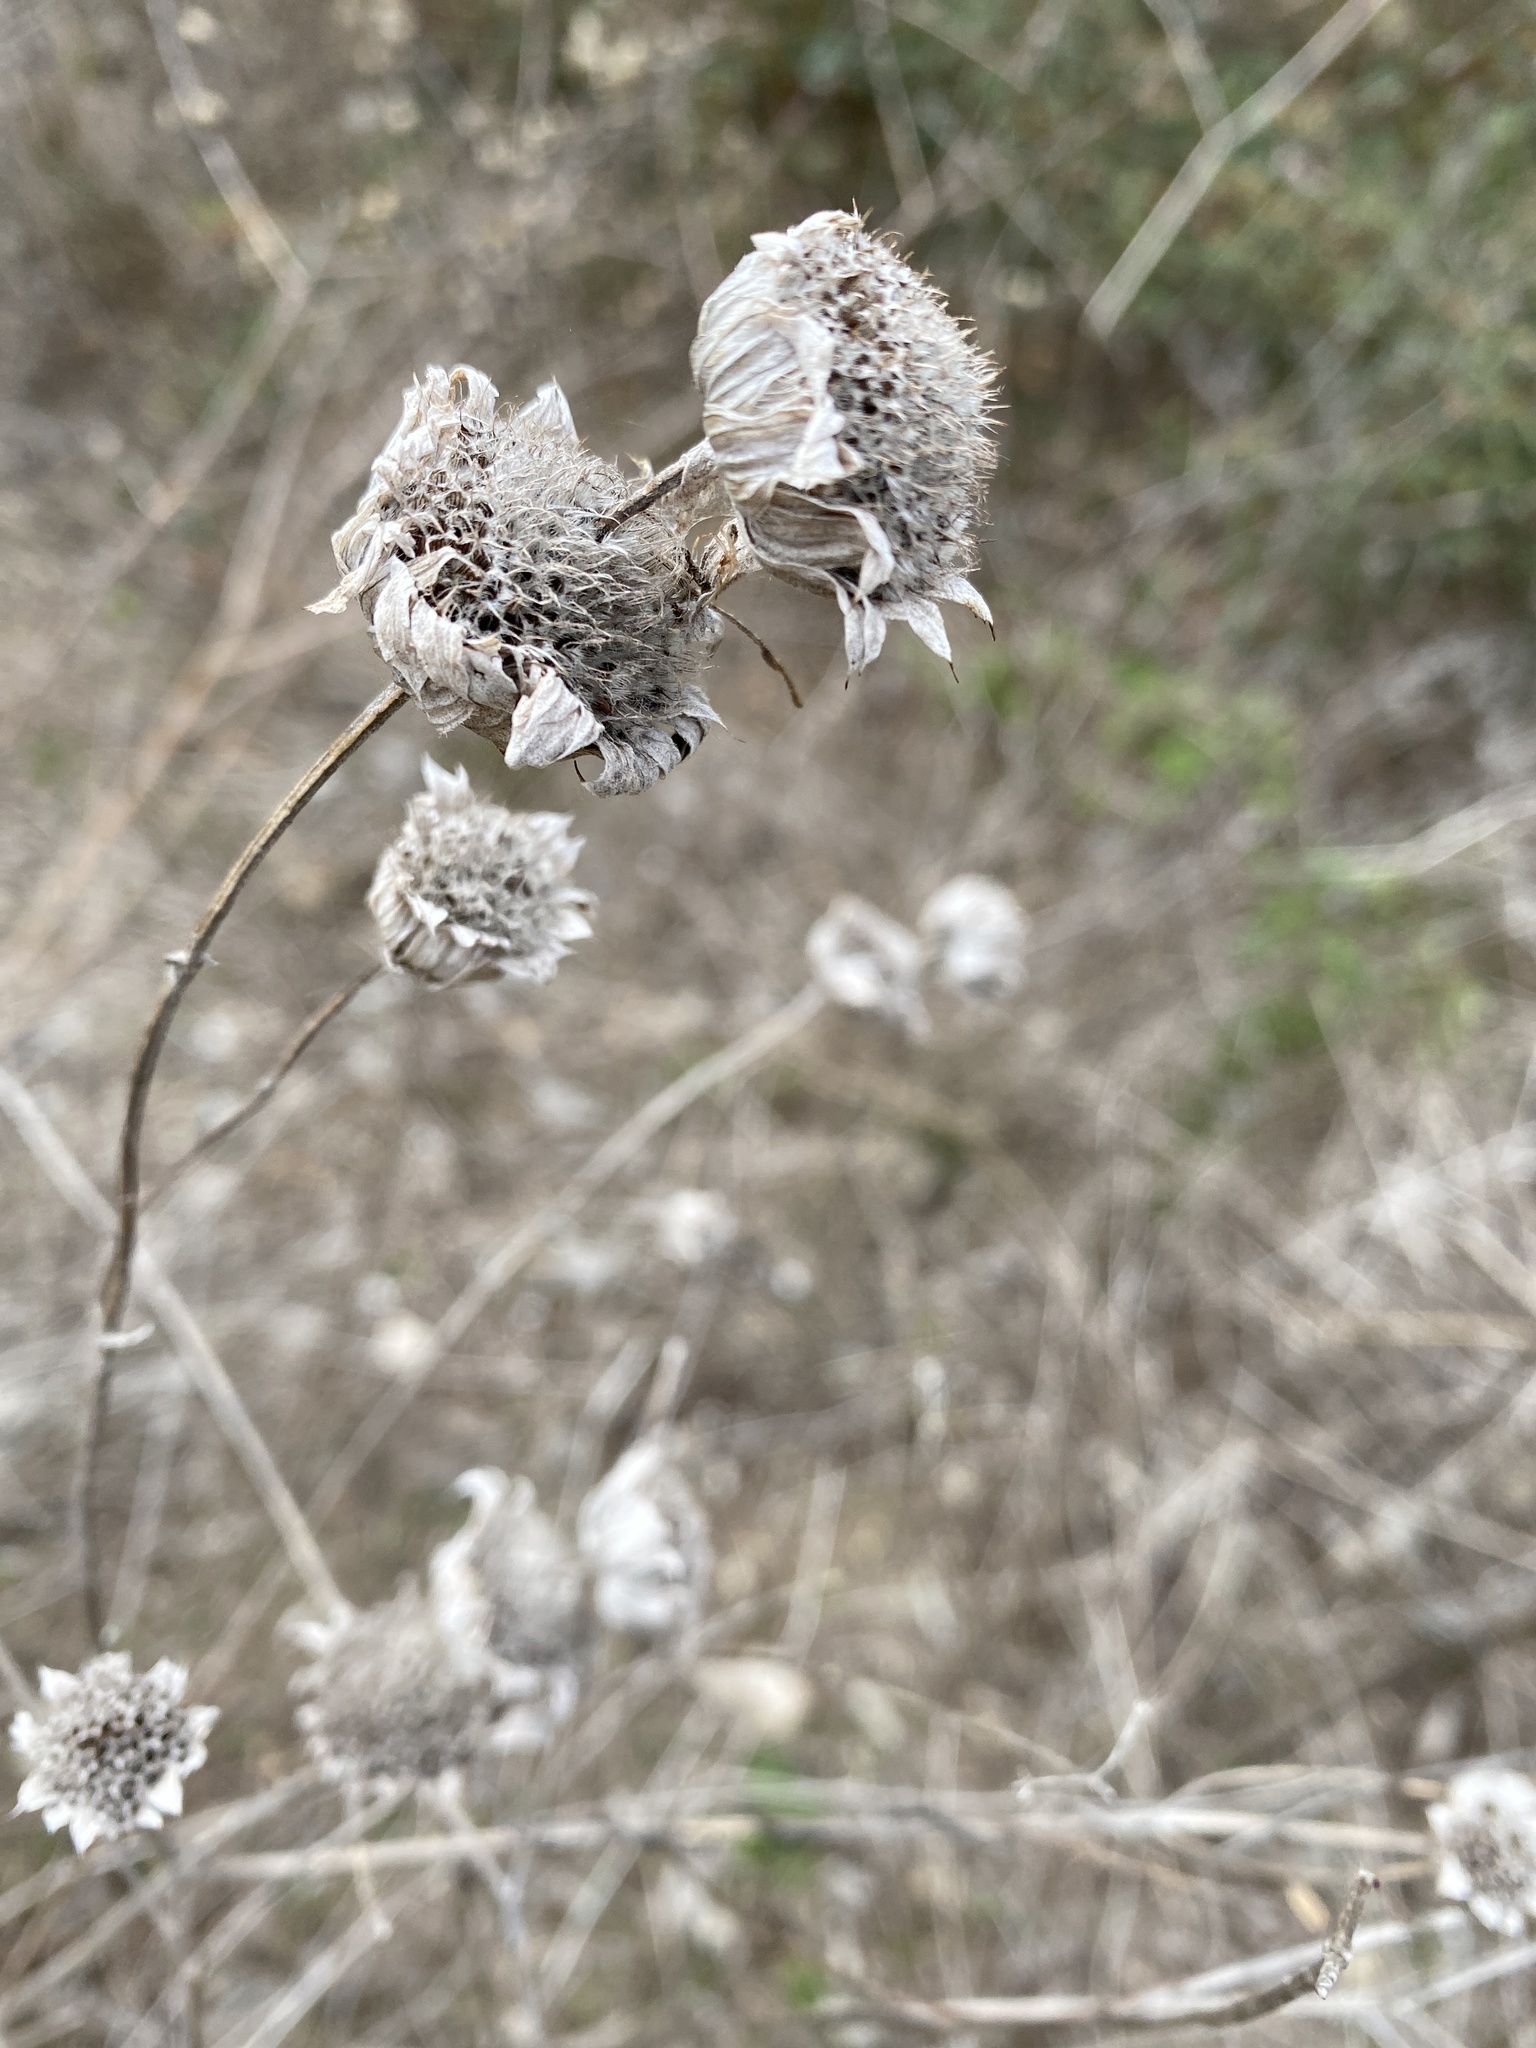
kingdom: Plantae
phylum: Tracheophyta
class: Magnoliopsida
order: Lamiales
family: Lamiaceae
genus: Monarda
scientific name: Monarda citriodora
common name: Lemon beebalm
